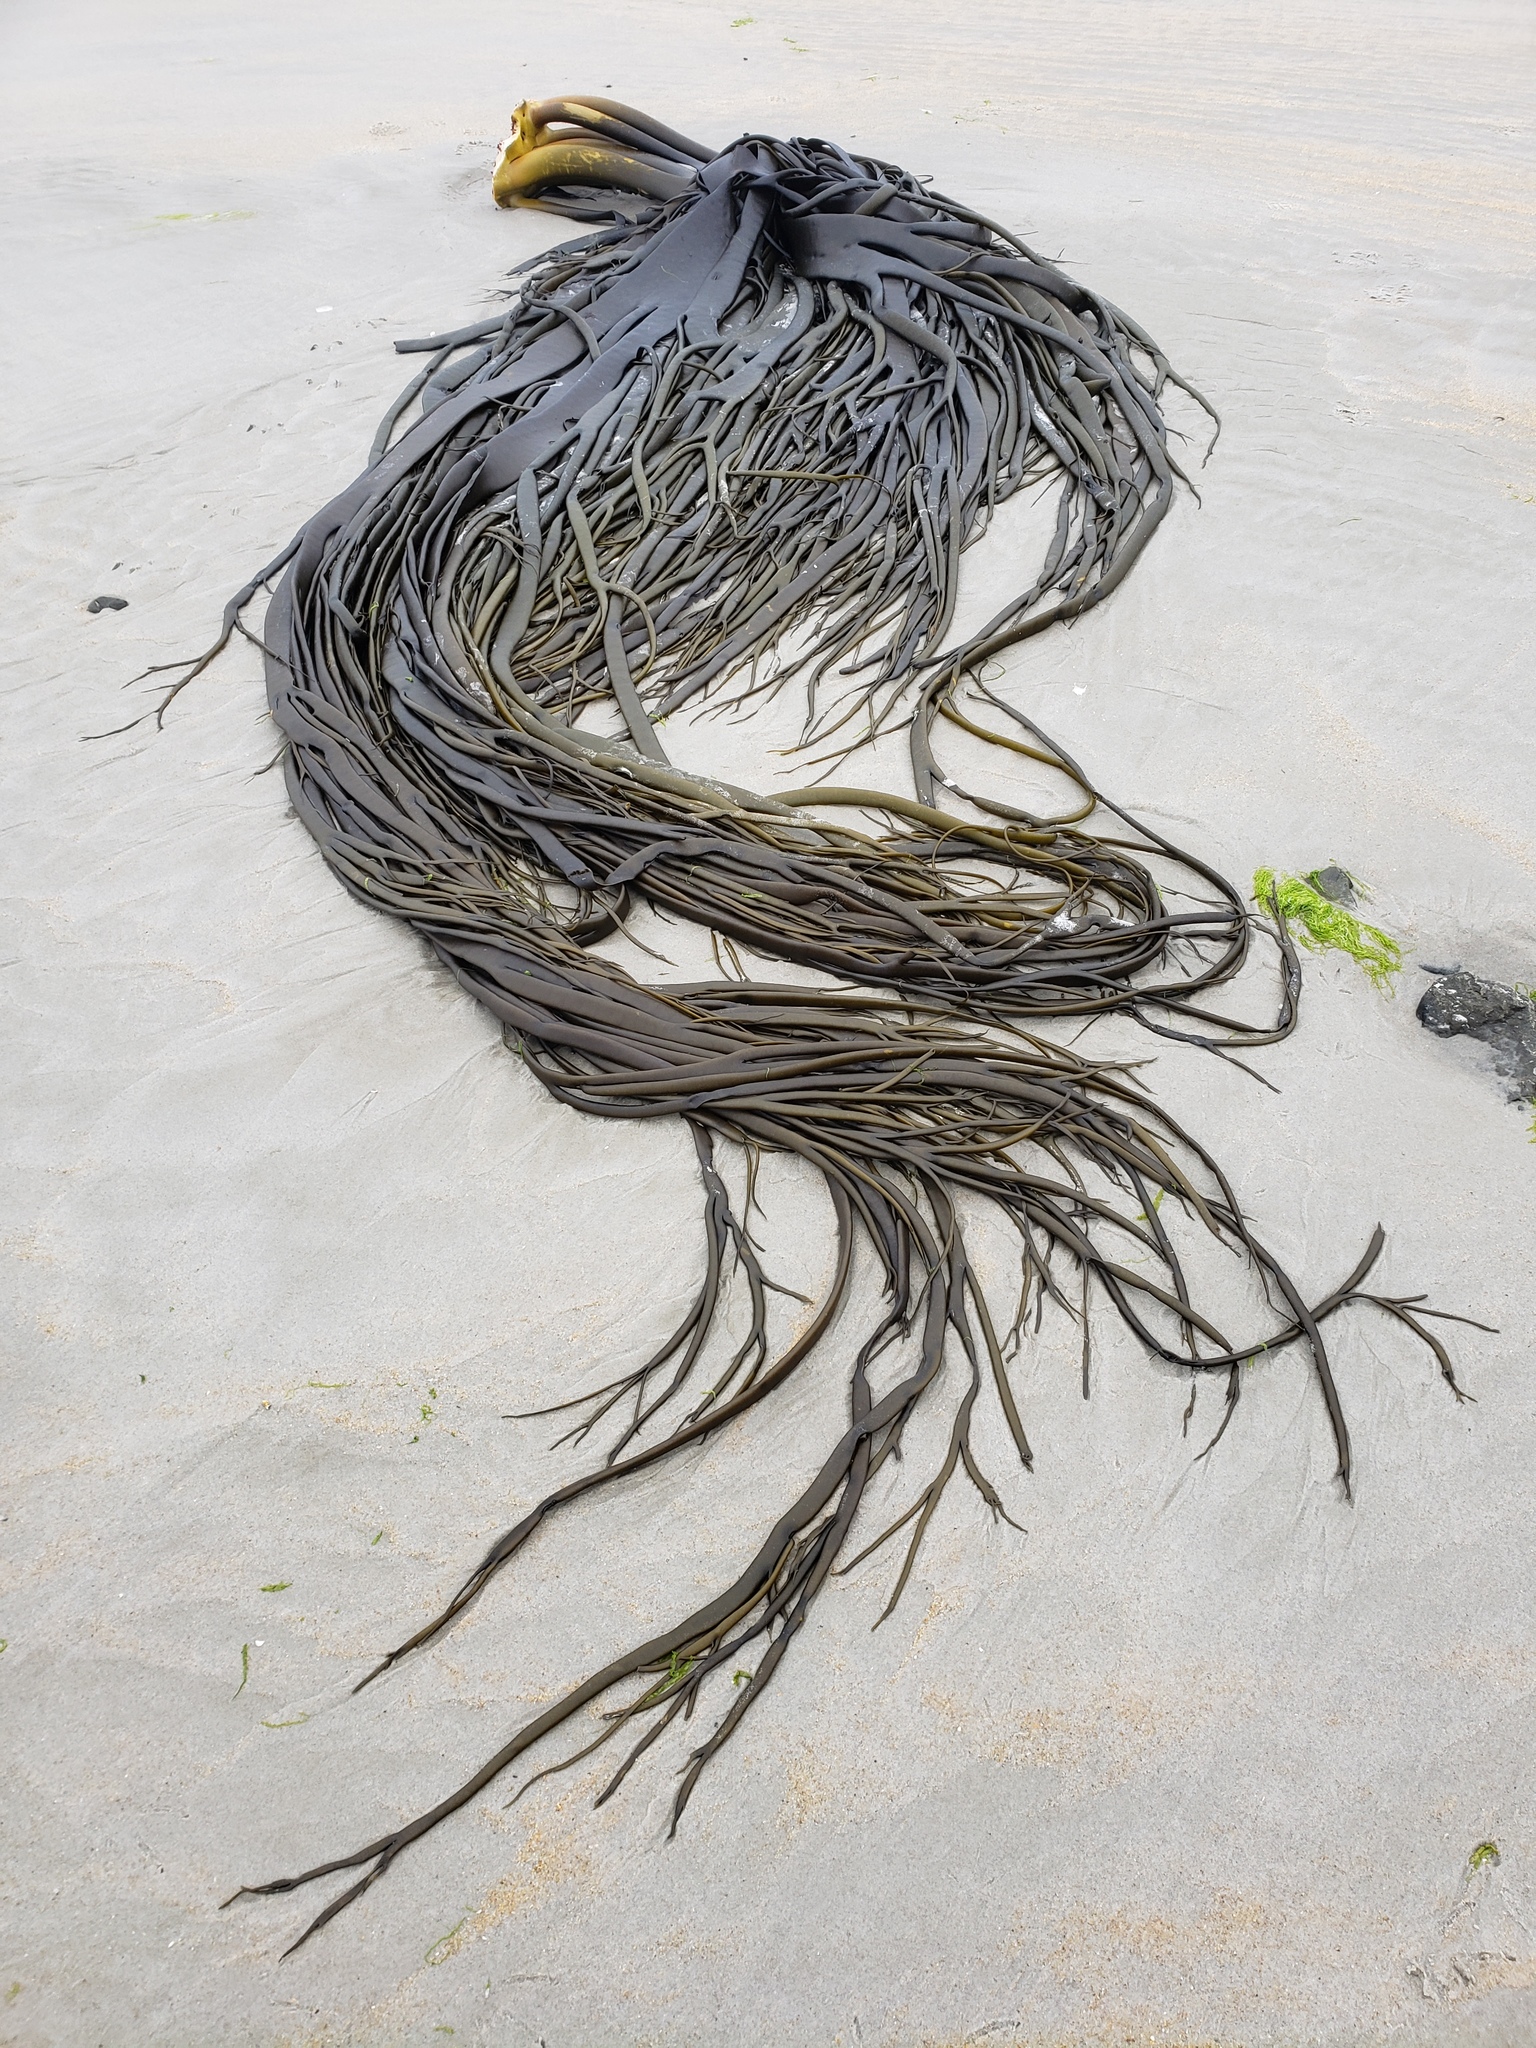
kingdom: Chromista
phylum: Ochrophyta
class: Phaeophyceae
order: Fucales
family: Durvillaeaceae
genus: Durvillaea
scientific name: Durvillaea antarctica
